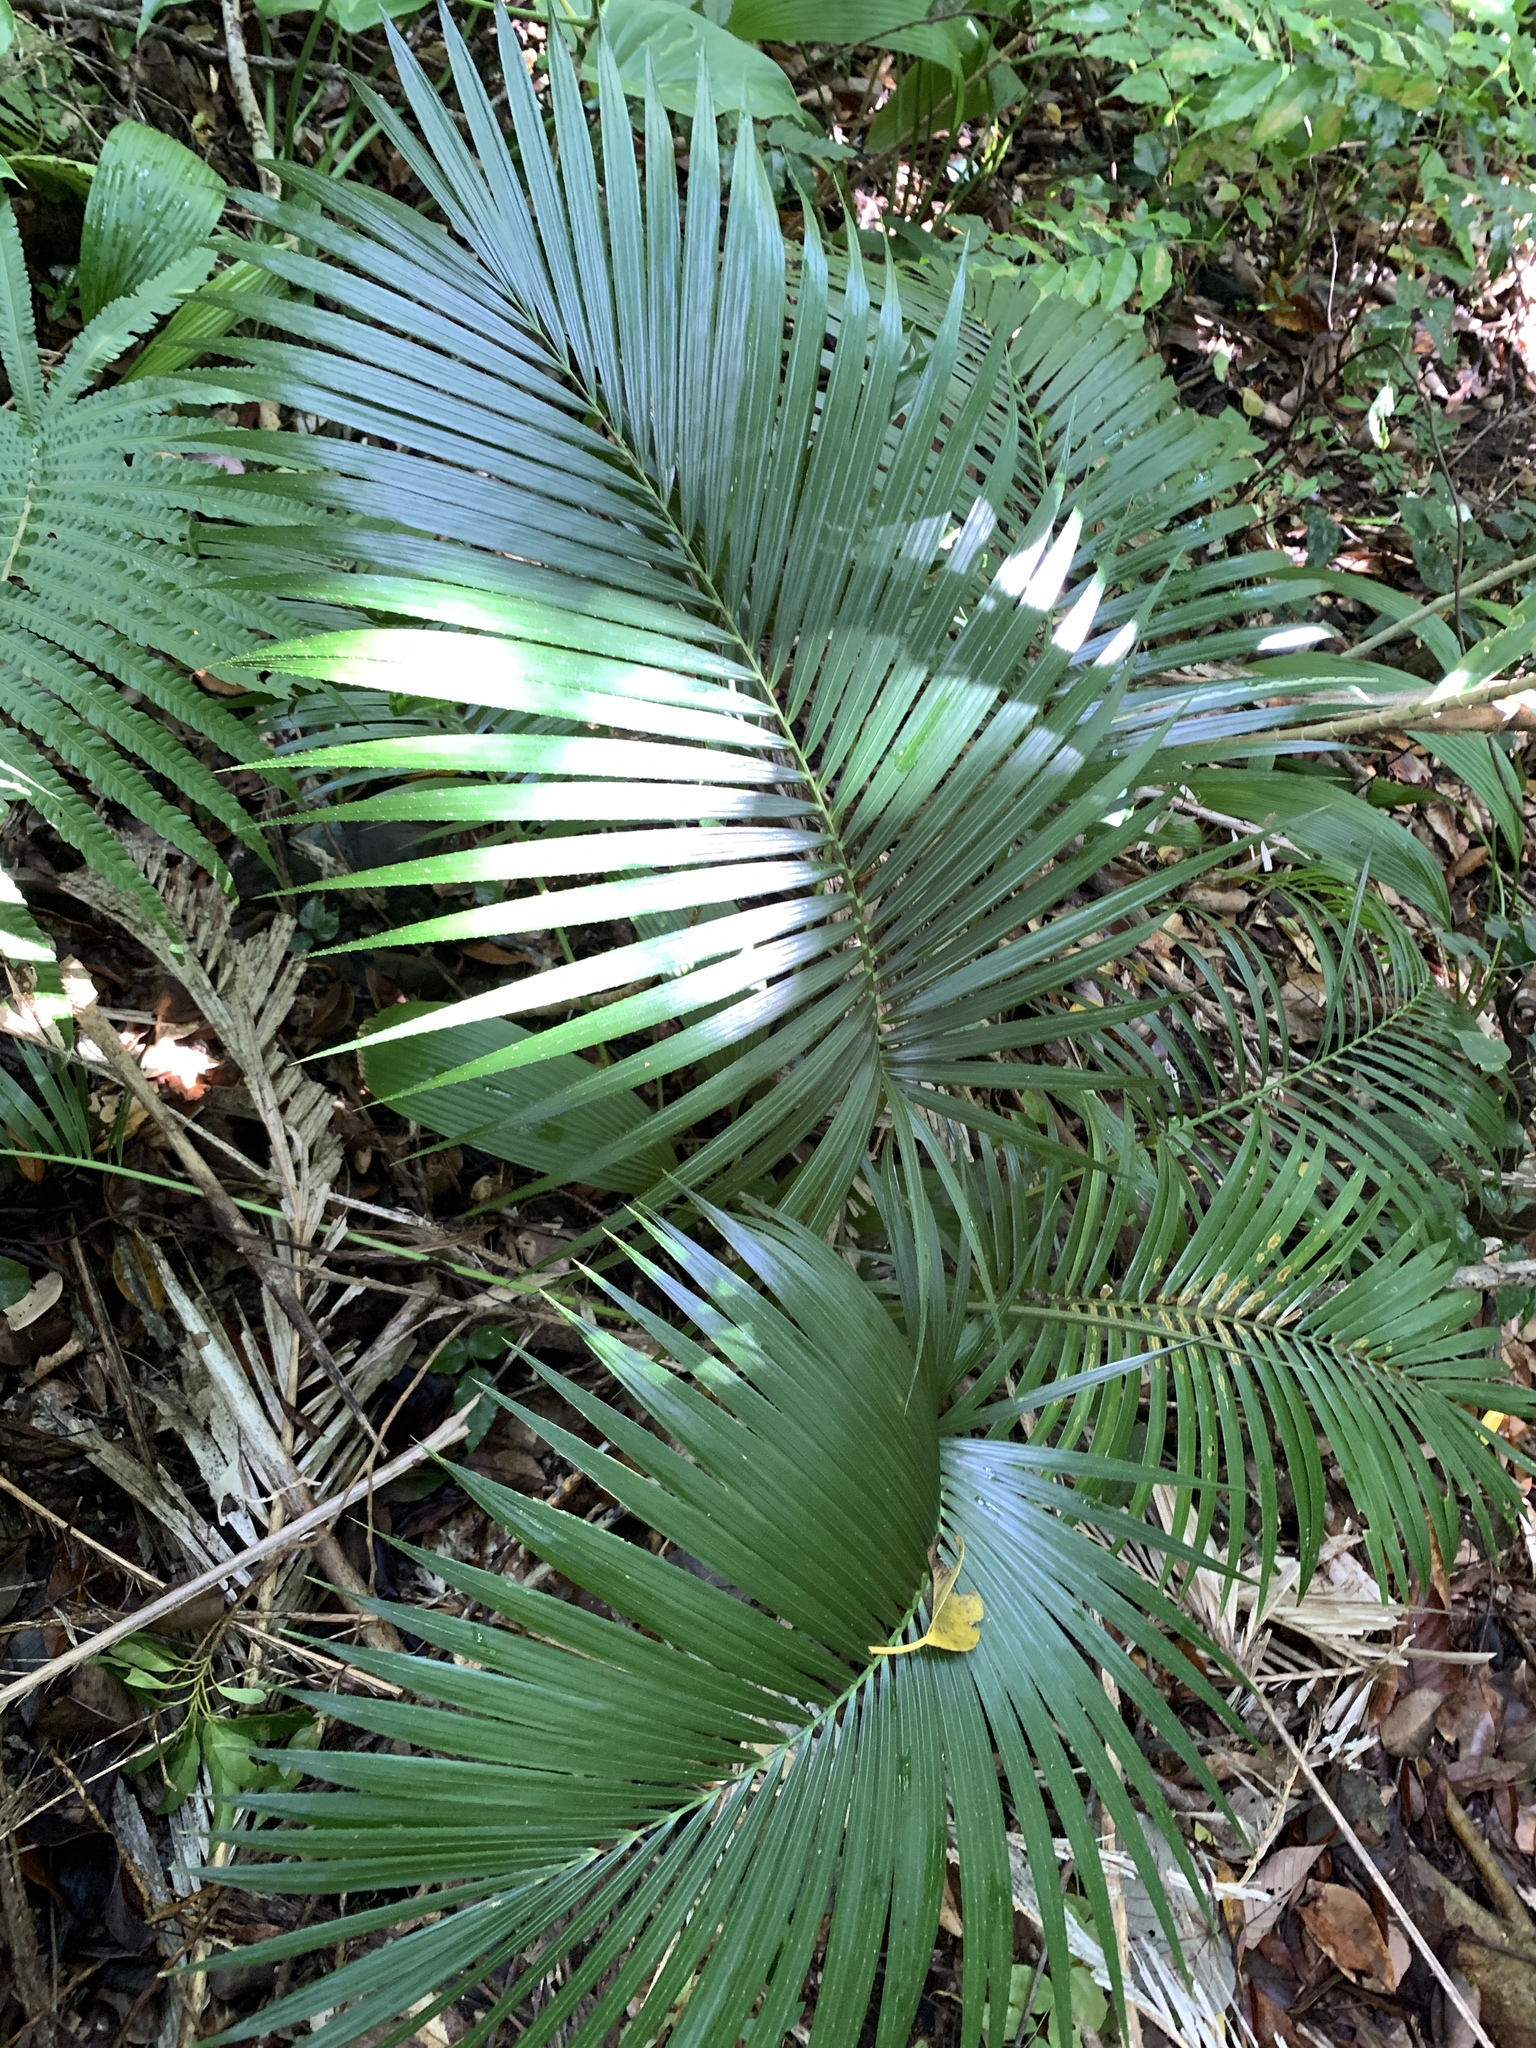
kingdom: Plantae
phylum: Tracheophyta
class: Liliopsida
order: Arecales
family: Arecaceae
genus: Calamus
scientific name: Calamus siphonospathus
